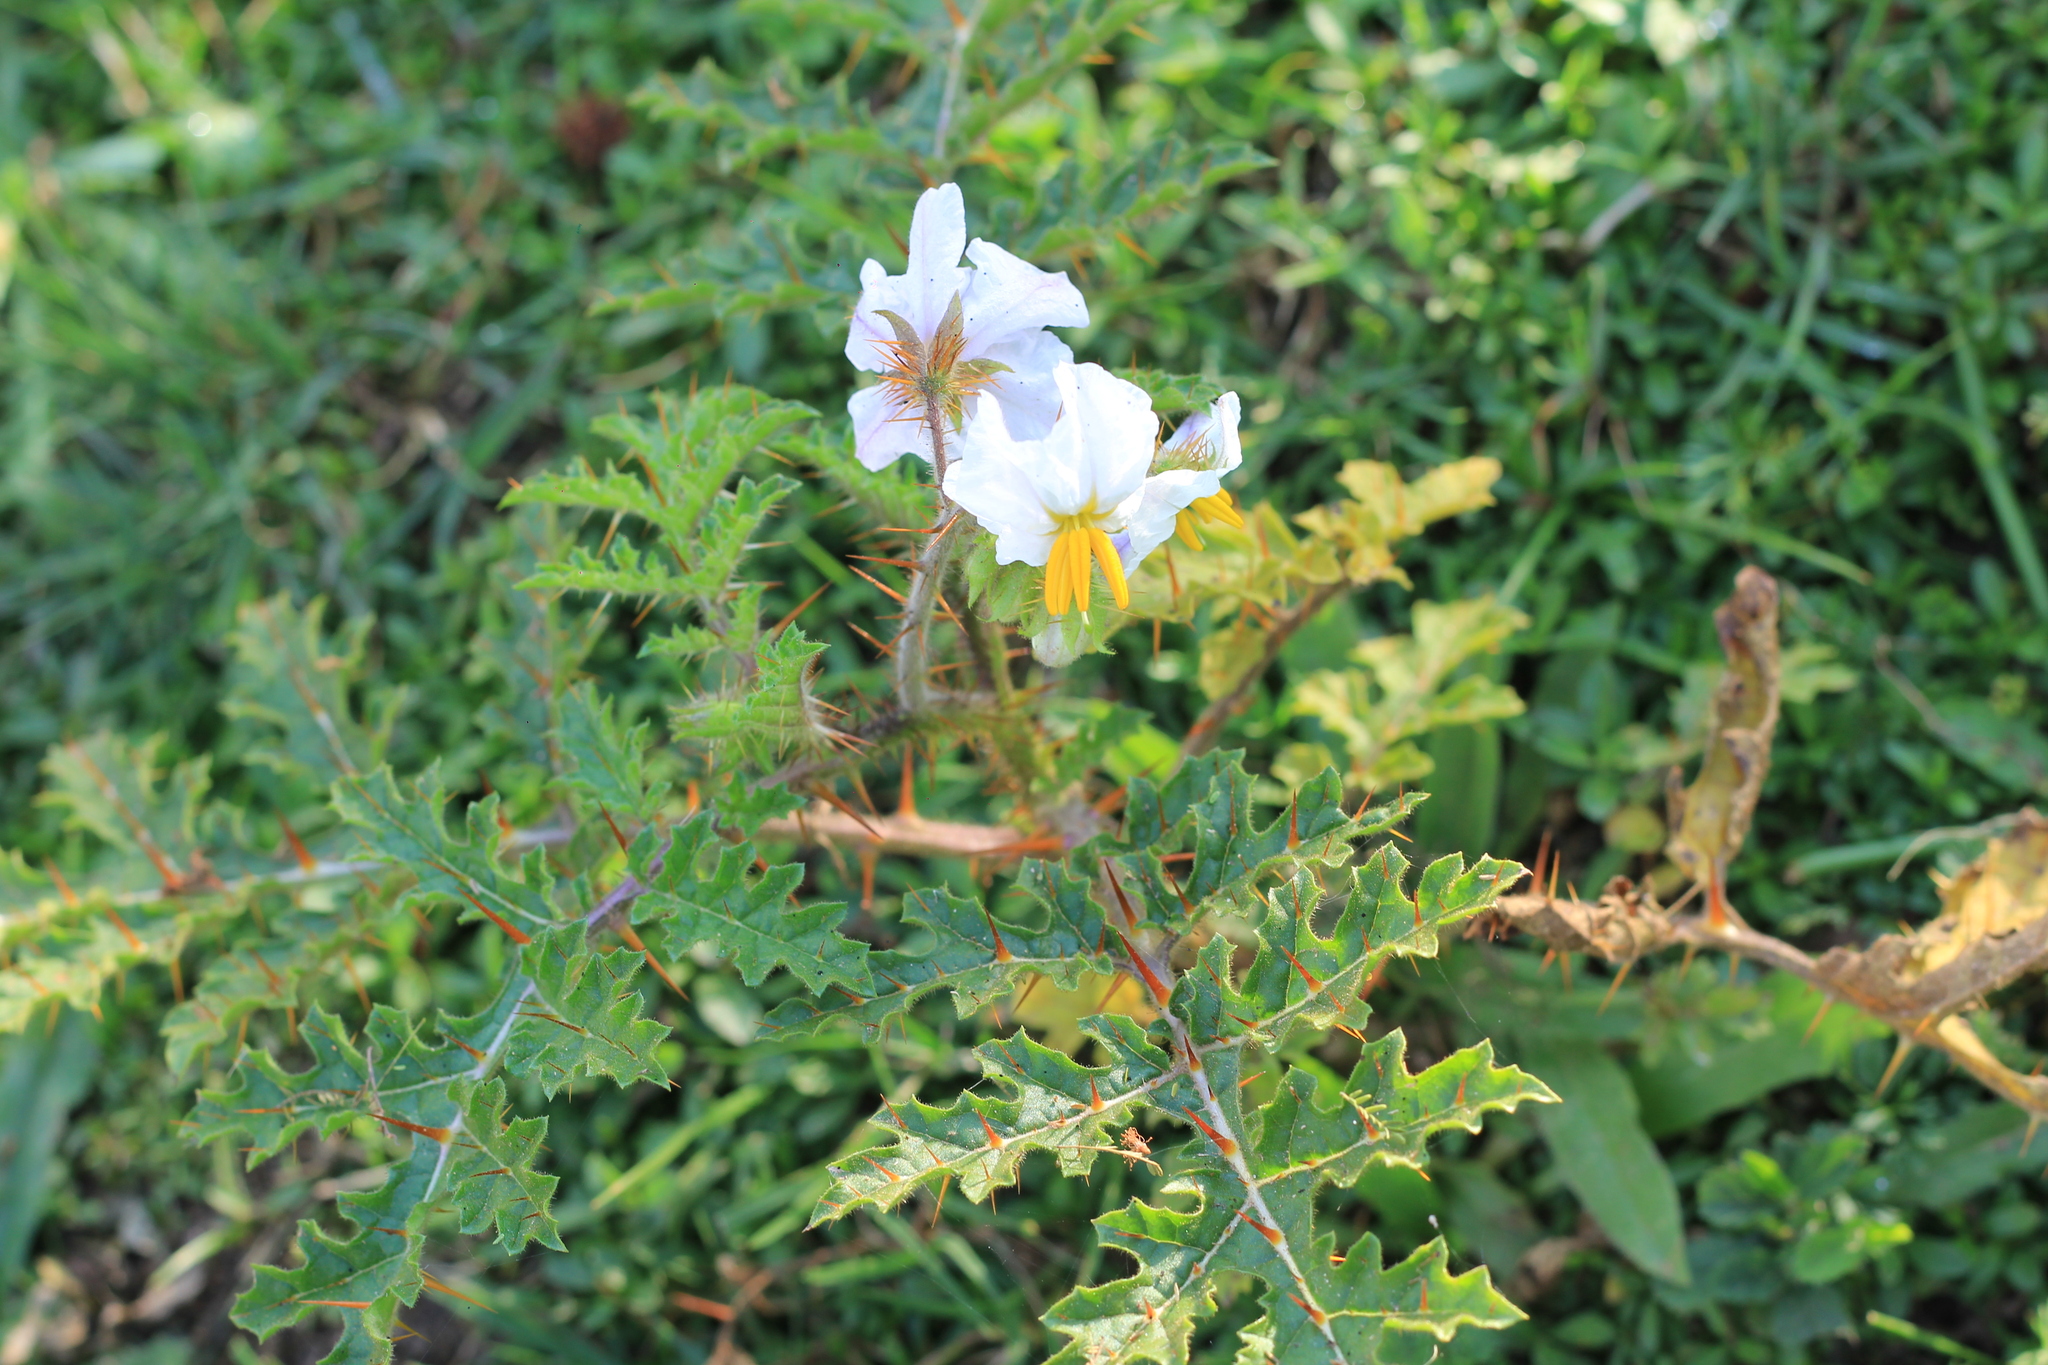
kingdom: Plantae
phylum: Tracheophyta
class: Magnoliopsida
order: Solanales
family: Solanaceae
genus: Solanum
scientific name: Solanum sisymbriifolium
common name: Red buffalo-bur
